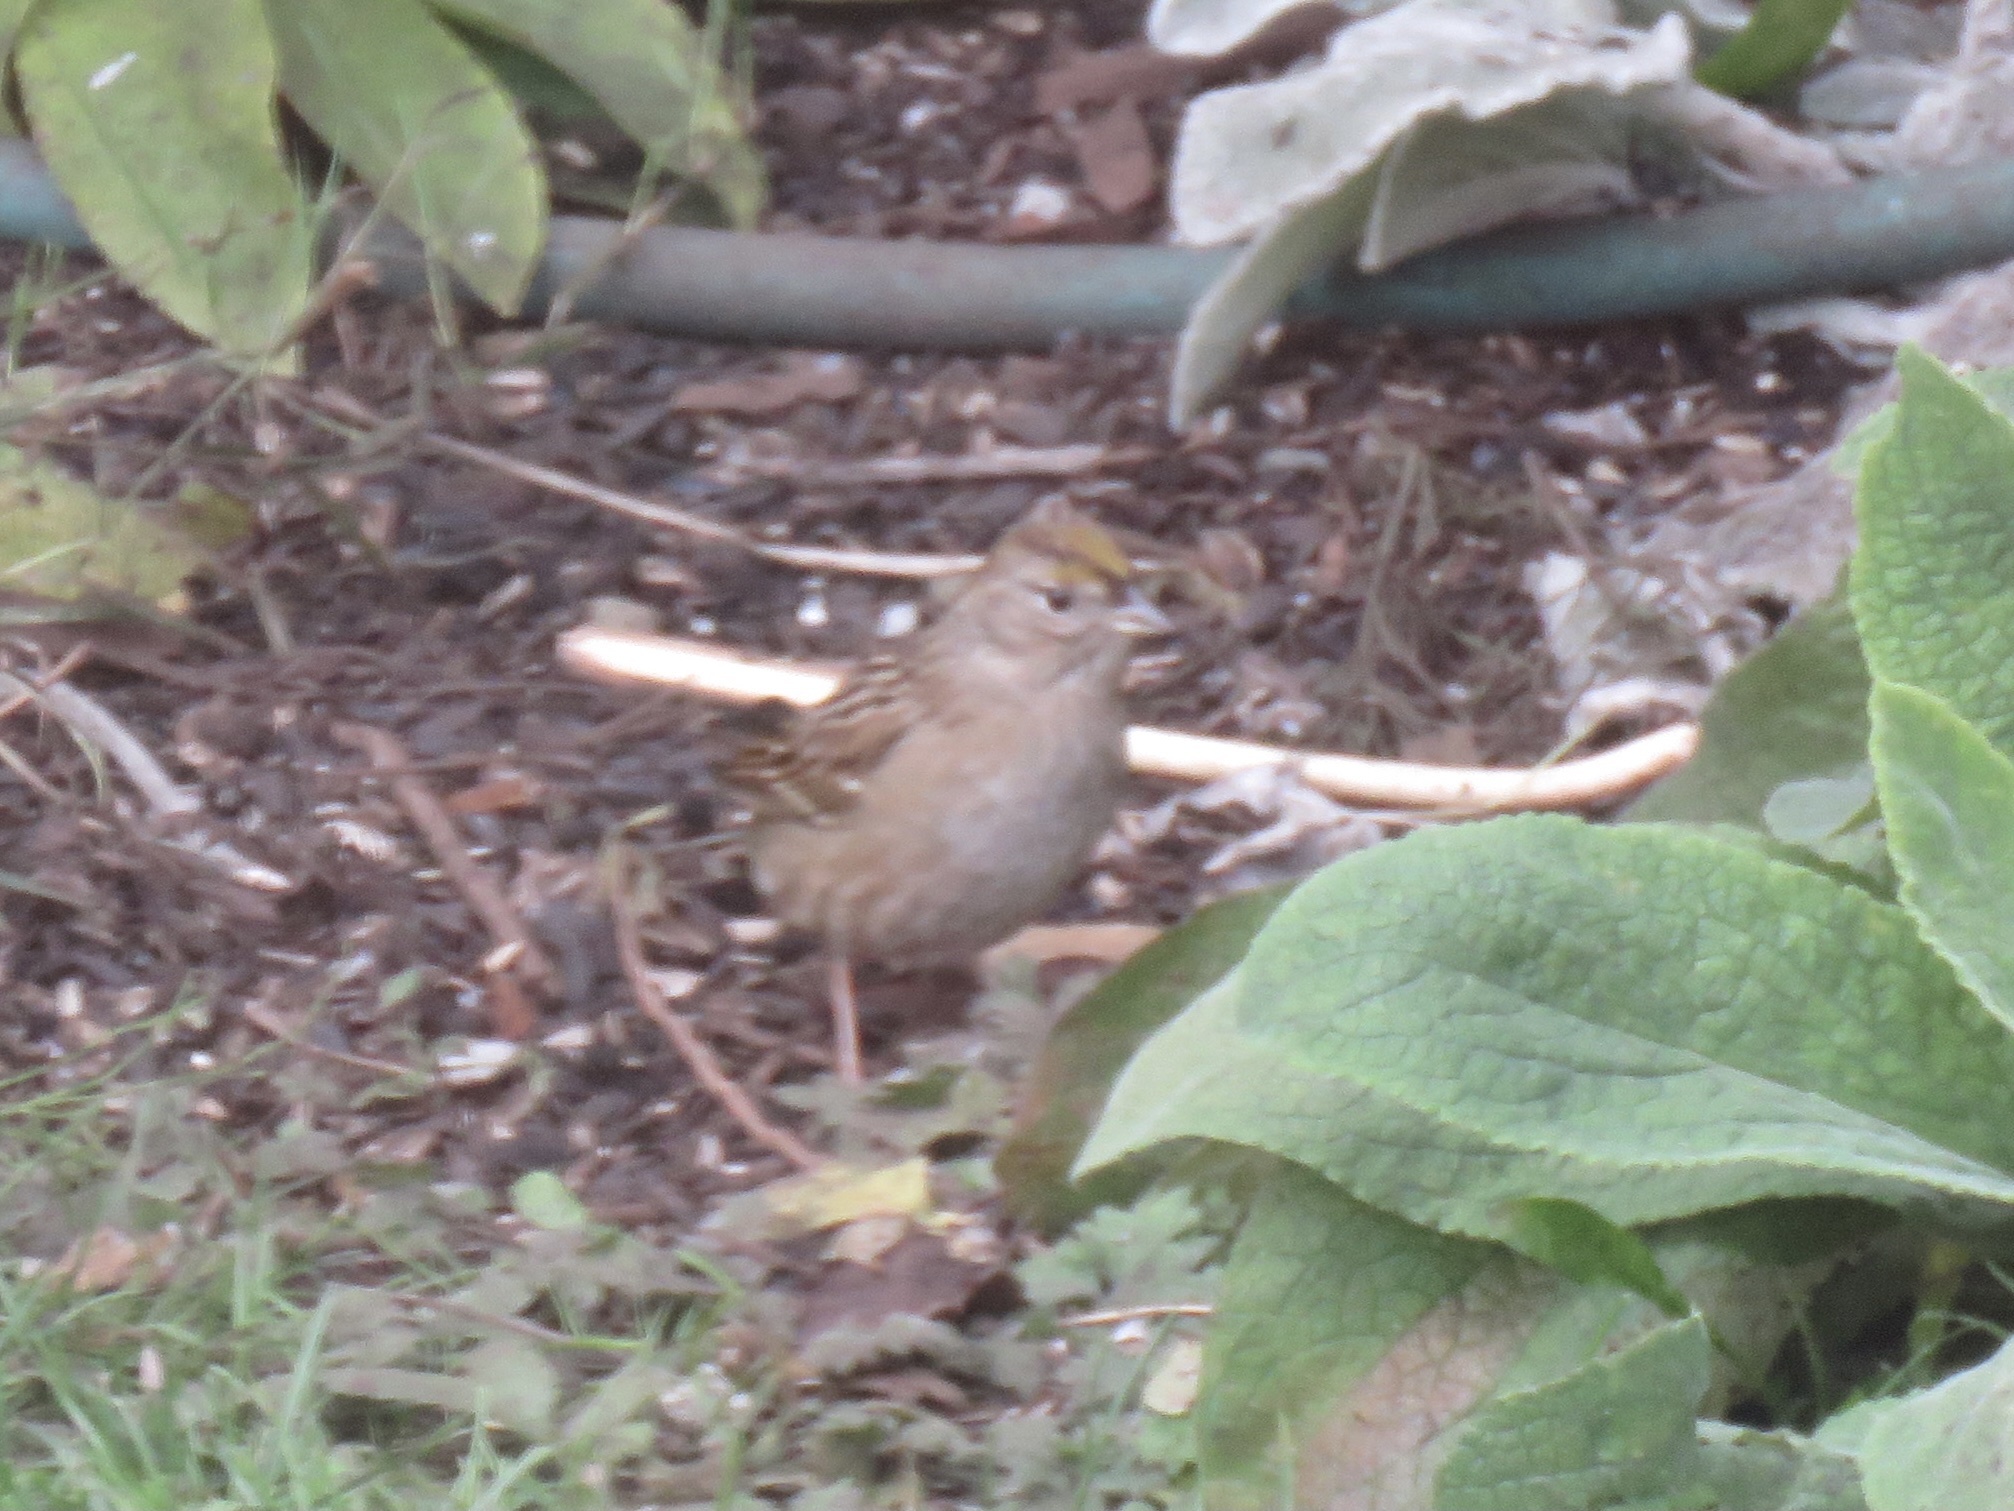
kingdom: Animalia
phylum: Chordata
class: Aves
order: Passeriformes
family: Passerellidae
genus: Zonotrichia
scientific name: Zonotrichia atricapilla
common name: Golden-crowned sparrow
